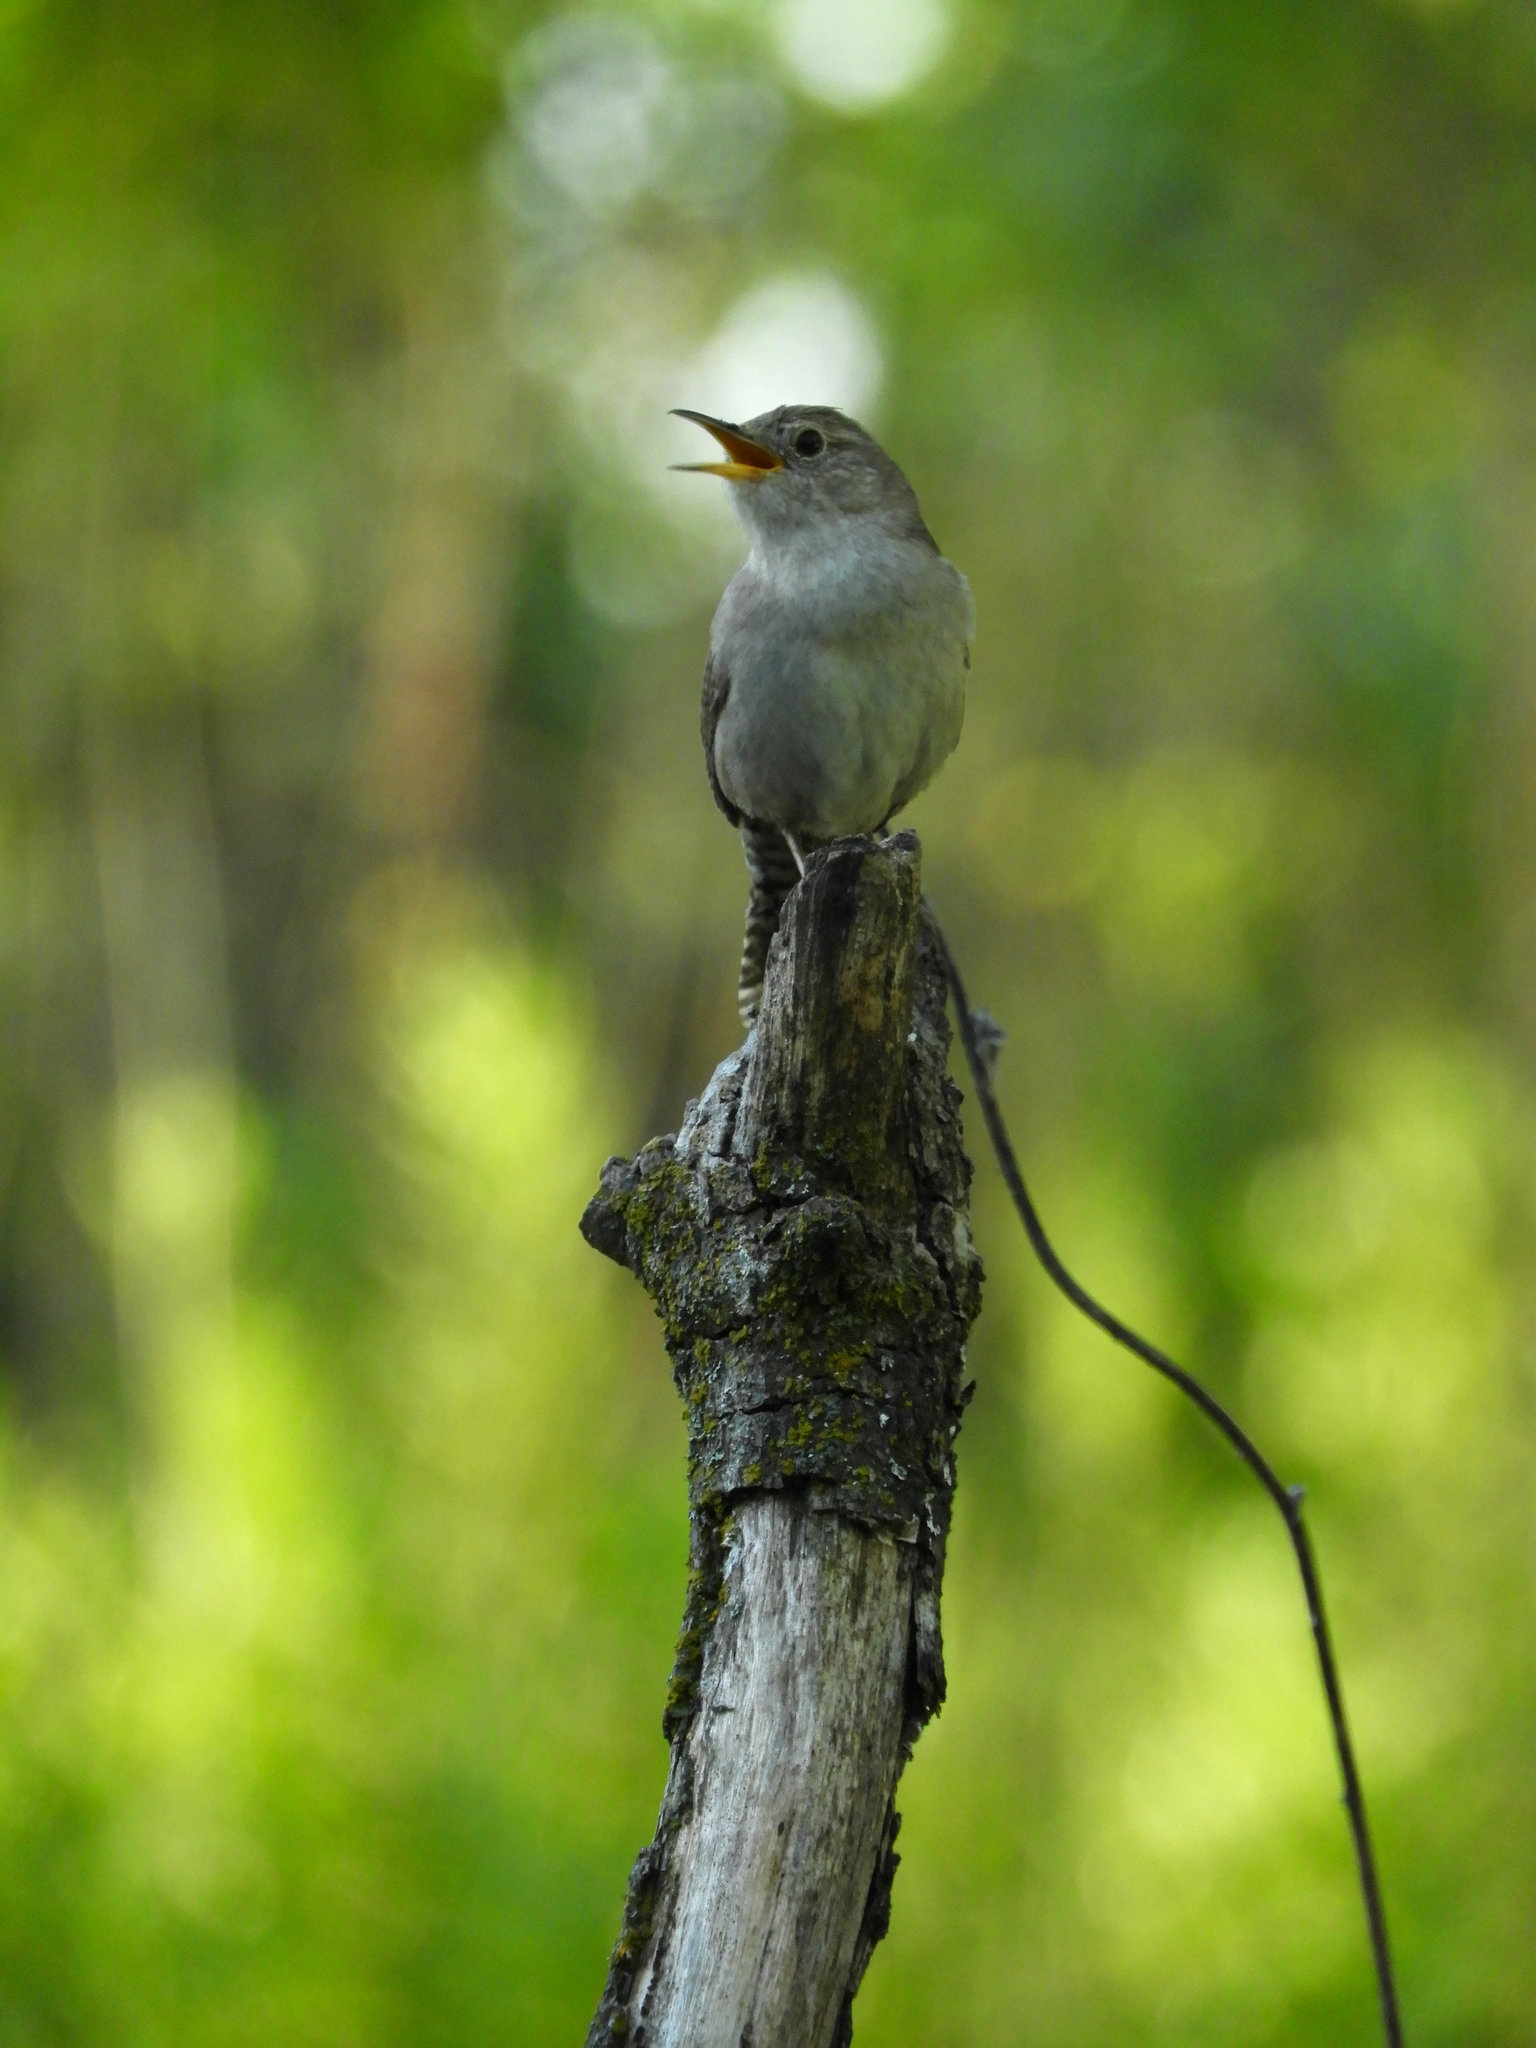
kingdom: Animalia
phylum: Chordata
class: Aves
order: Passeriformes
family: Troglodytidae
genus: Troglodytes
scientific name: Troglodytes aedon
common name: House wren
